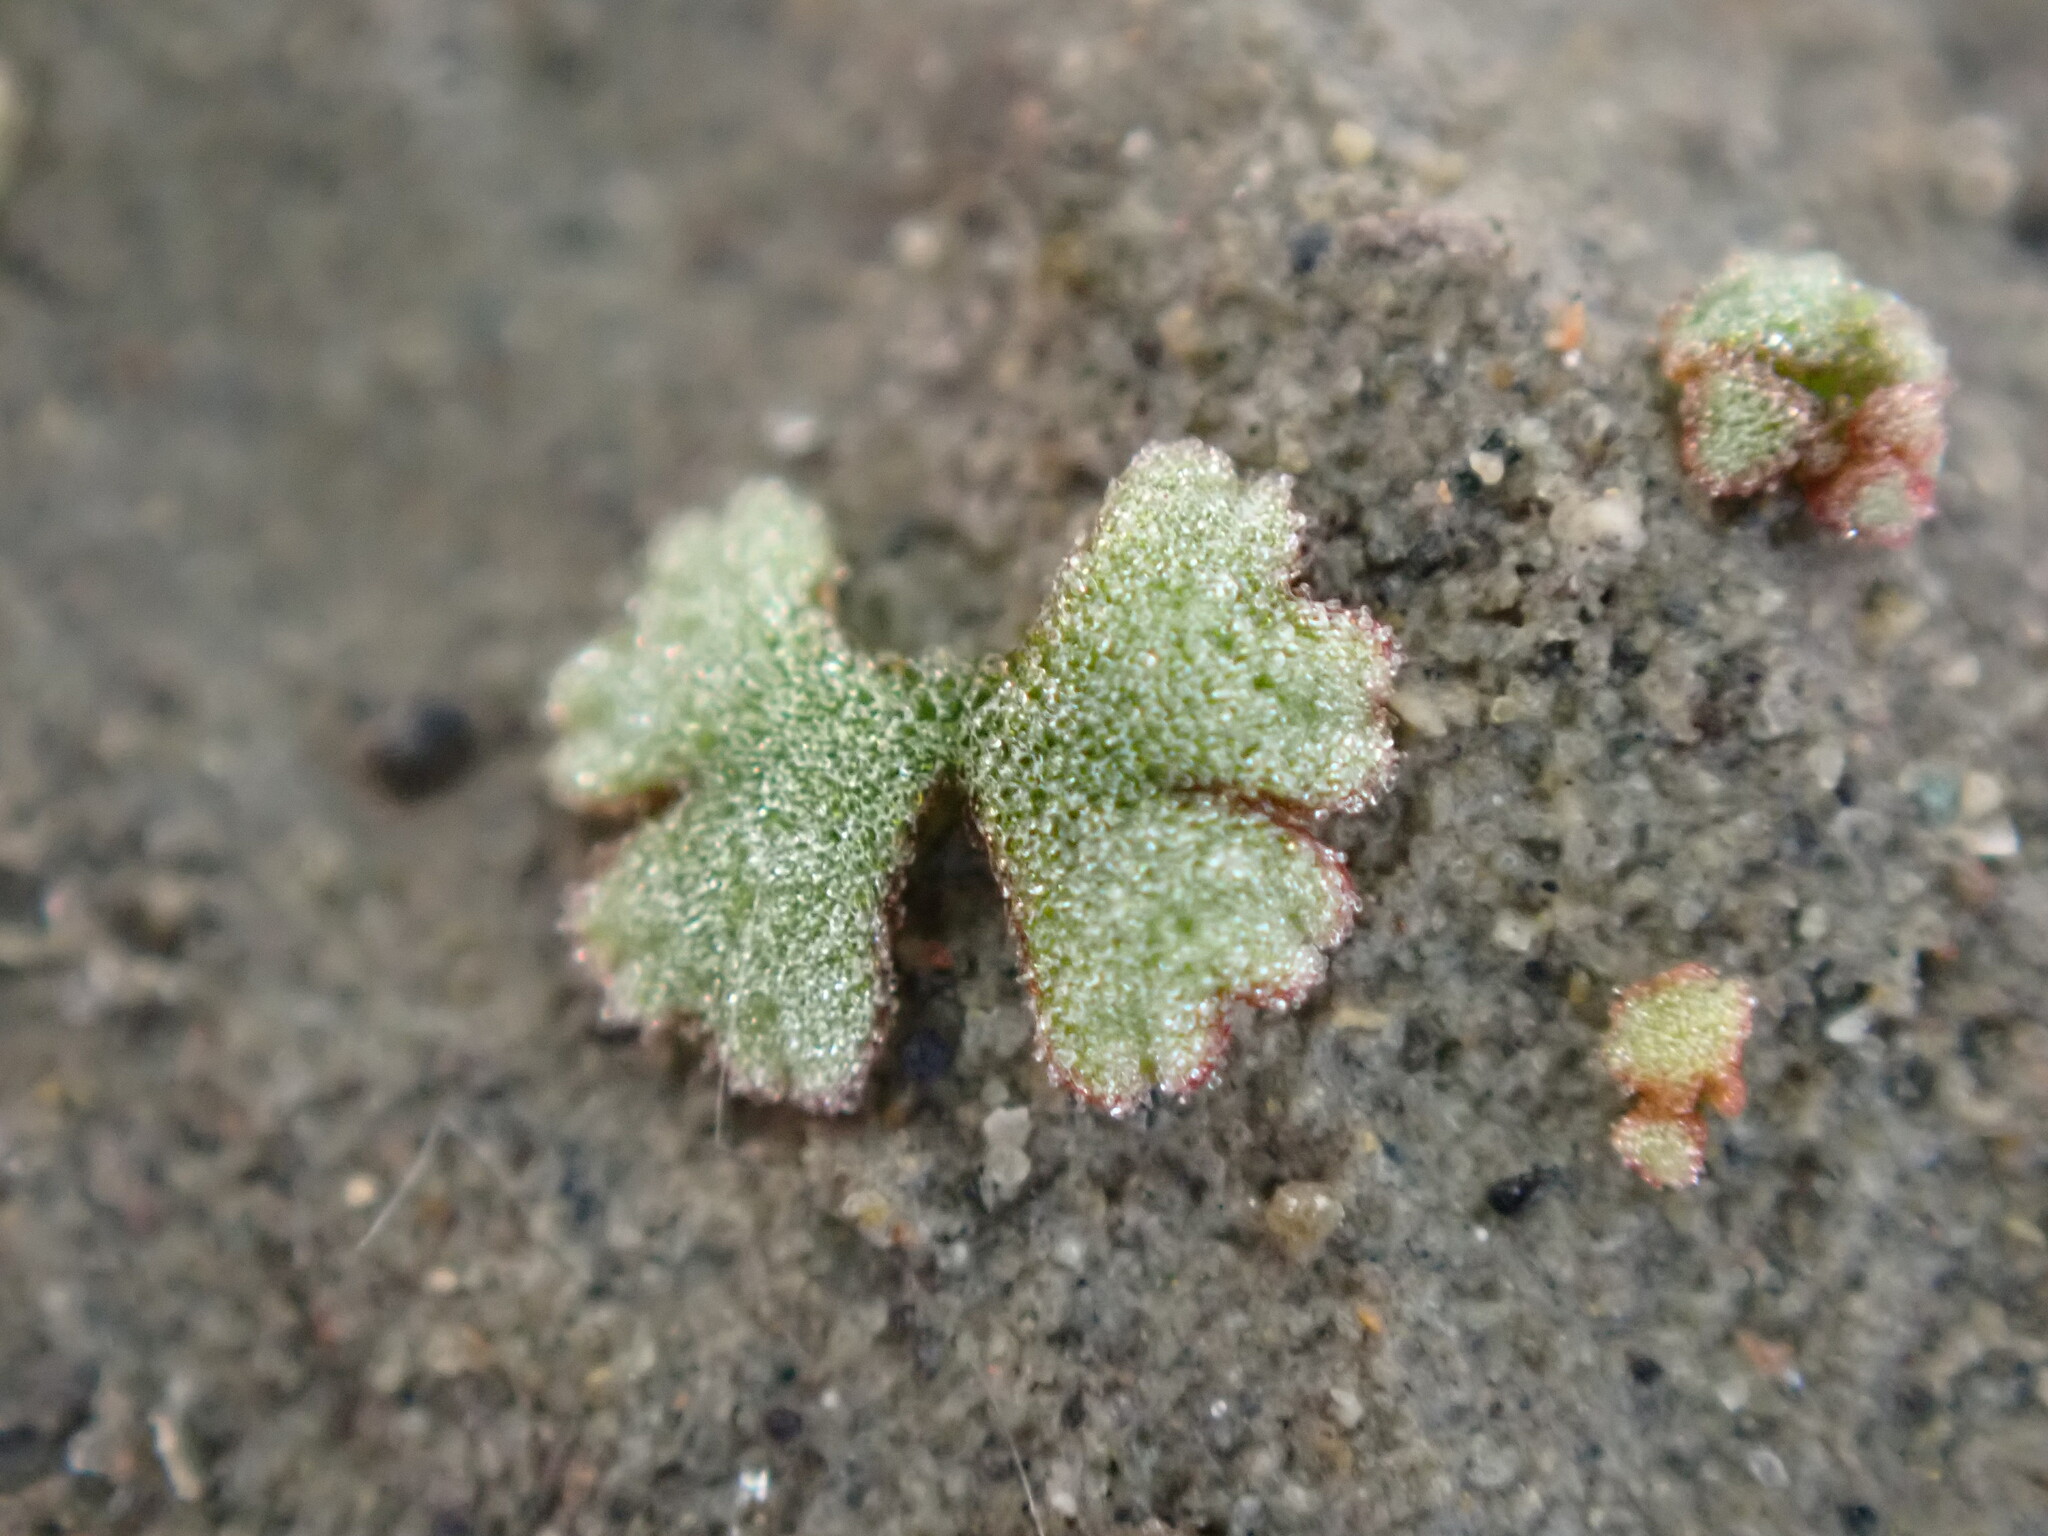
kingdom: Plantae
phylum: Marchantiophyta
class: Marchantiopsida
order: Marchantiales
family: Ricciaceae
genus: Riccia
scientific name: Riccia frostii
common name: Frost s crystalwort
